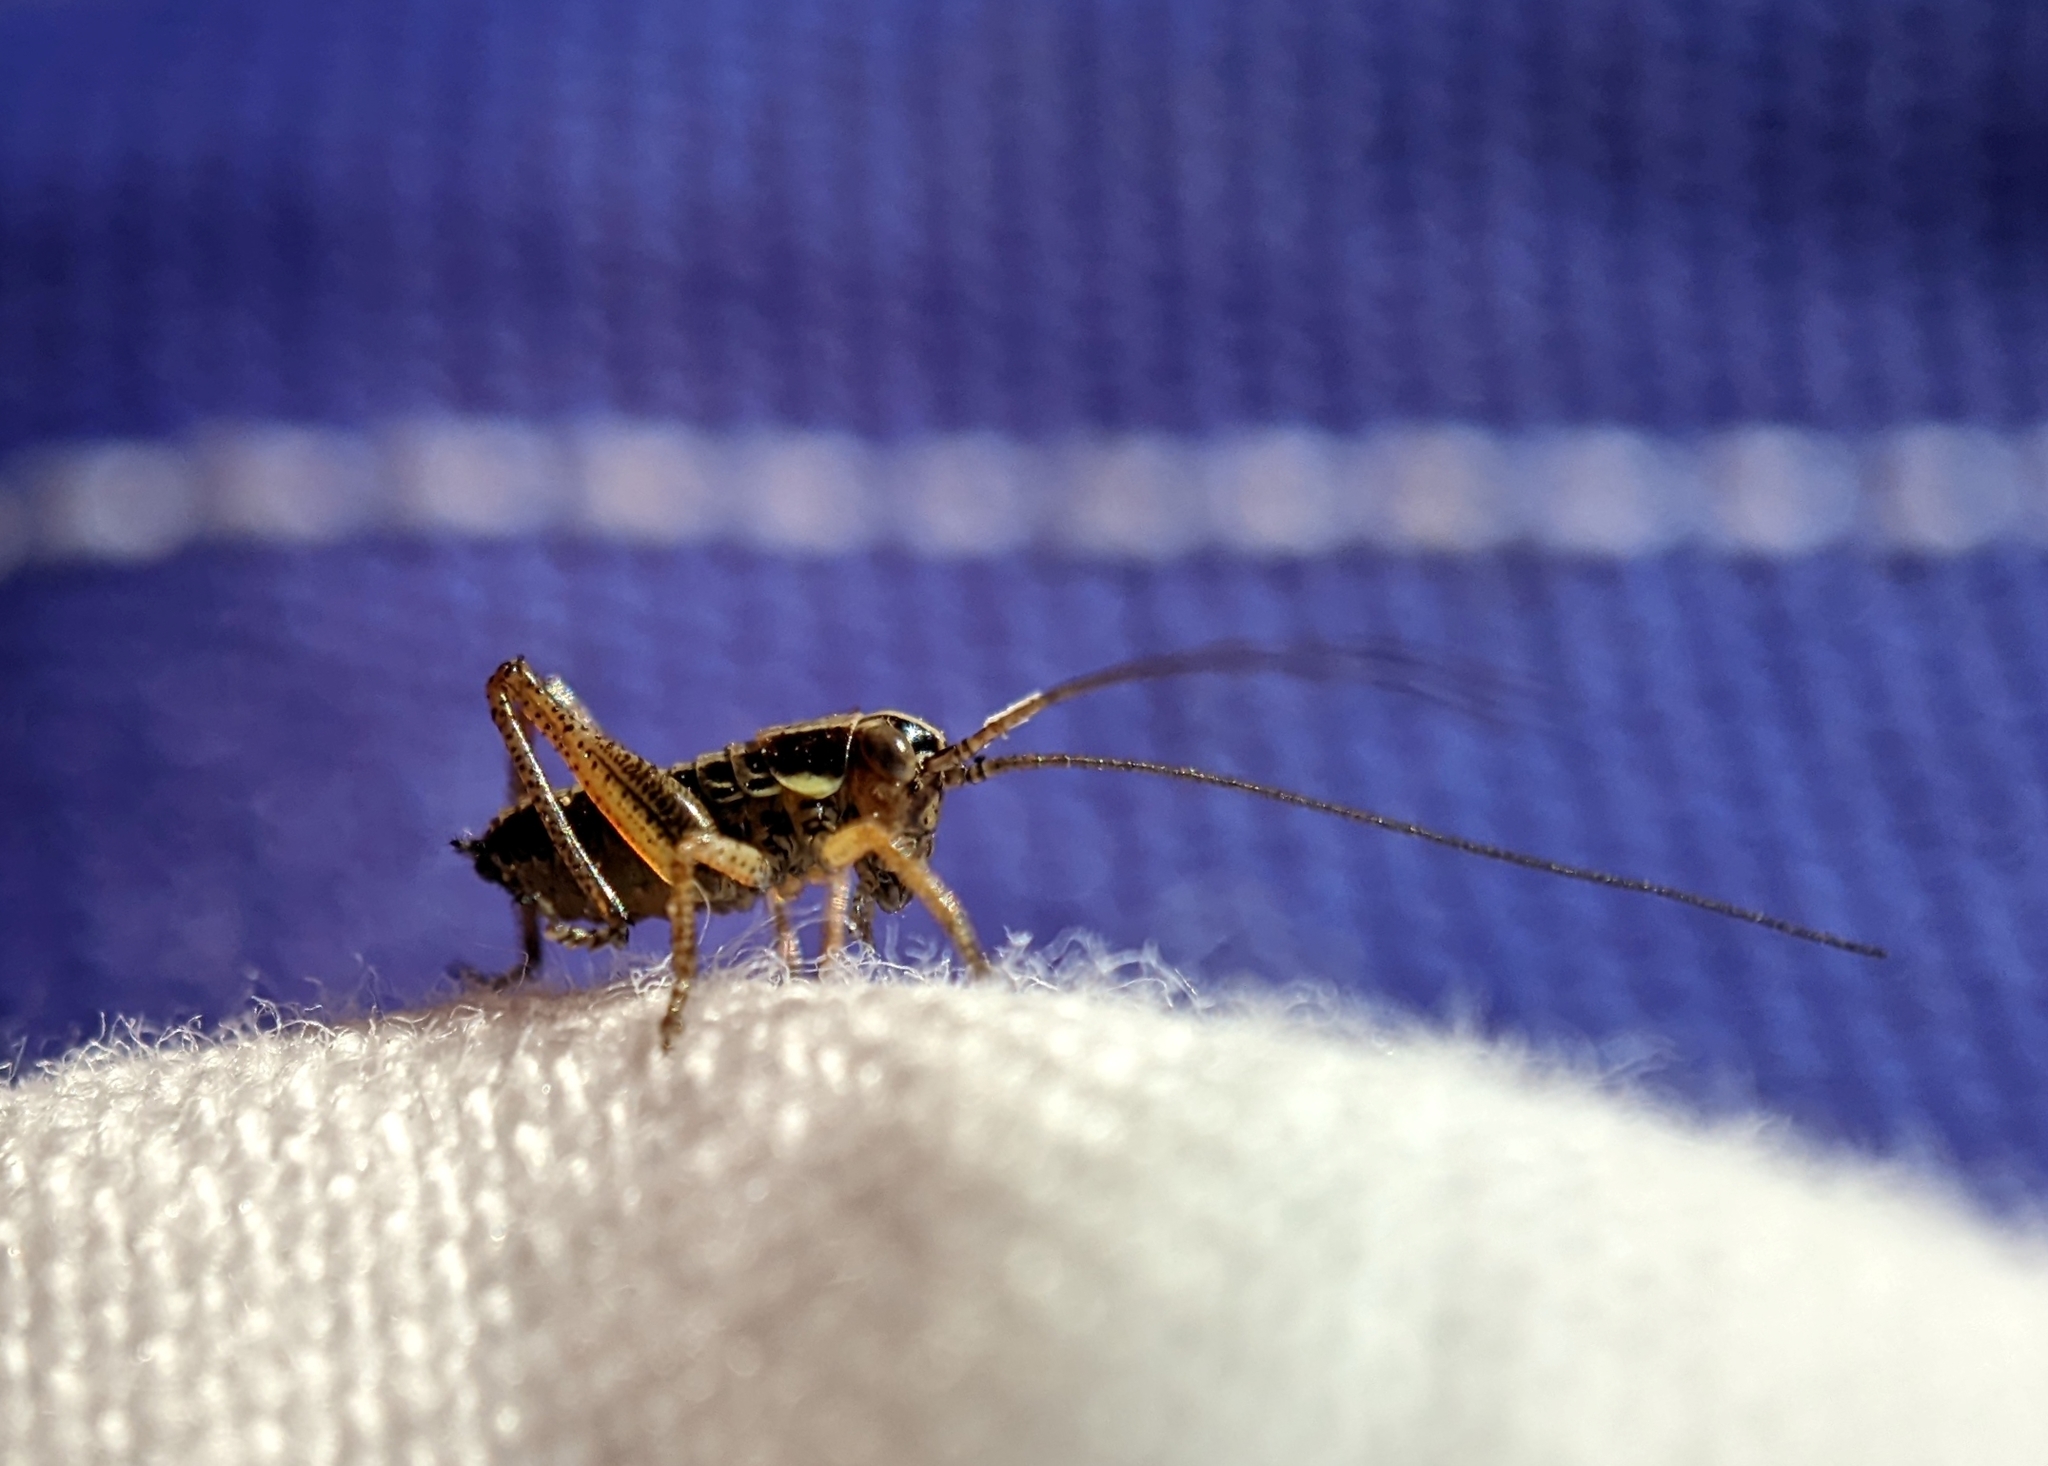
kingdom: Animalia
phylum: Arthropoda
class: Insecta
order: Orthoptera
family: Tettigoniidae
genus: Roeseliana
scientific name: Roeseliana roeselii
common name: Roesel's bush cricket
